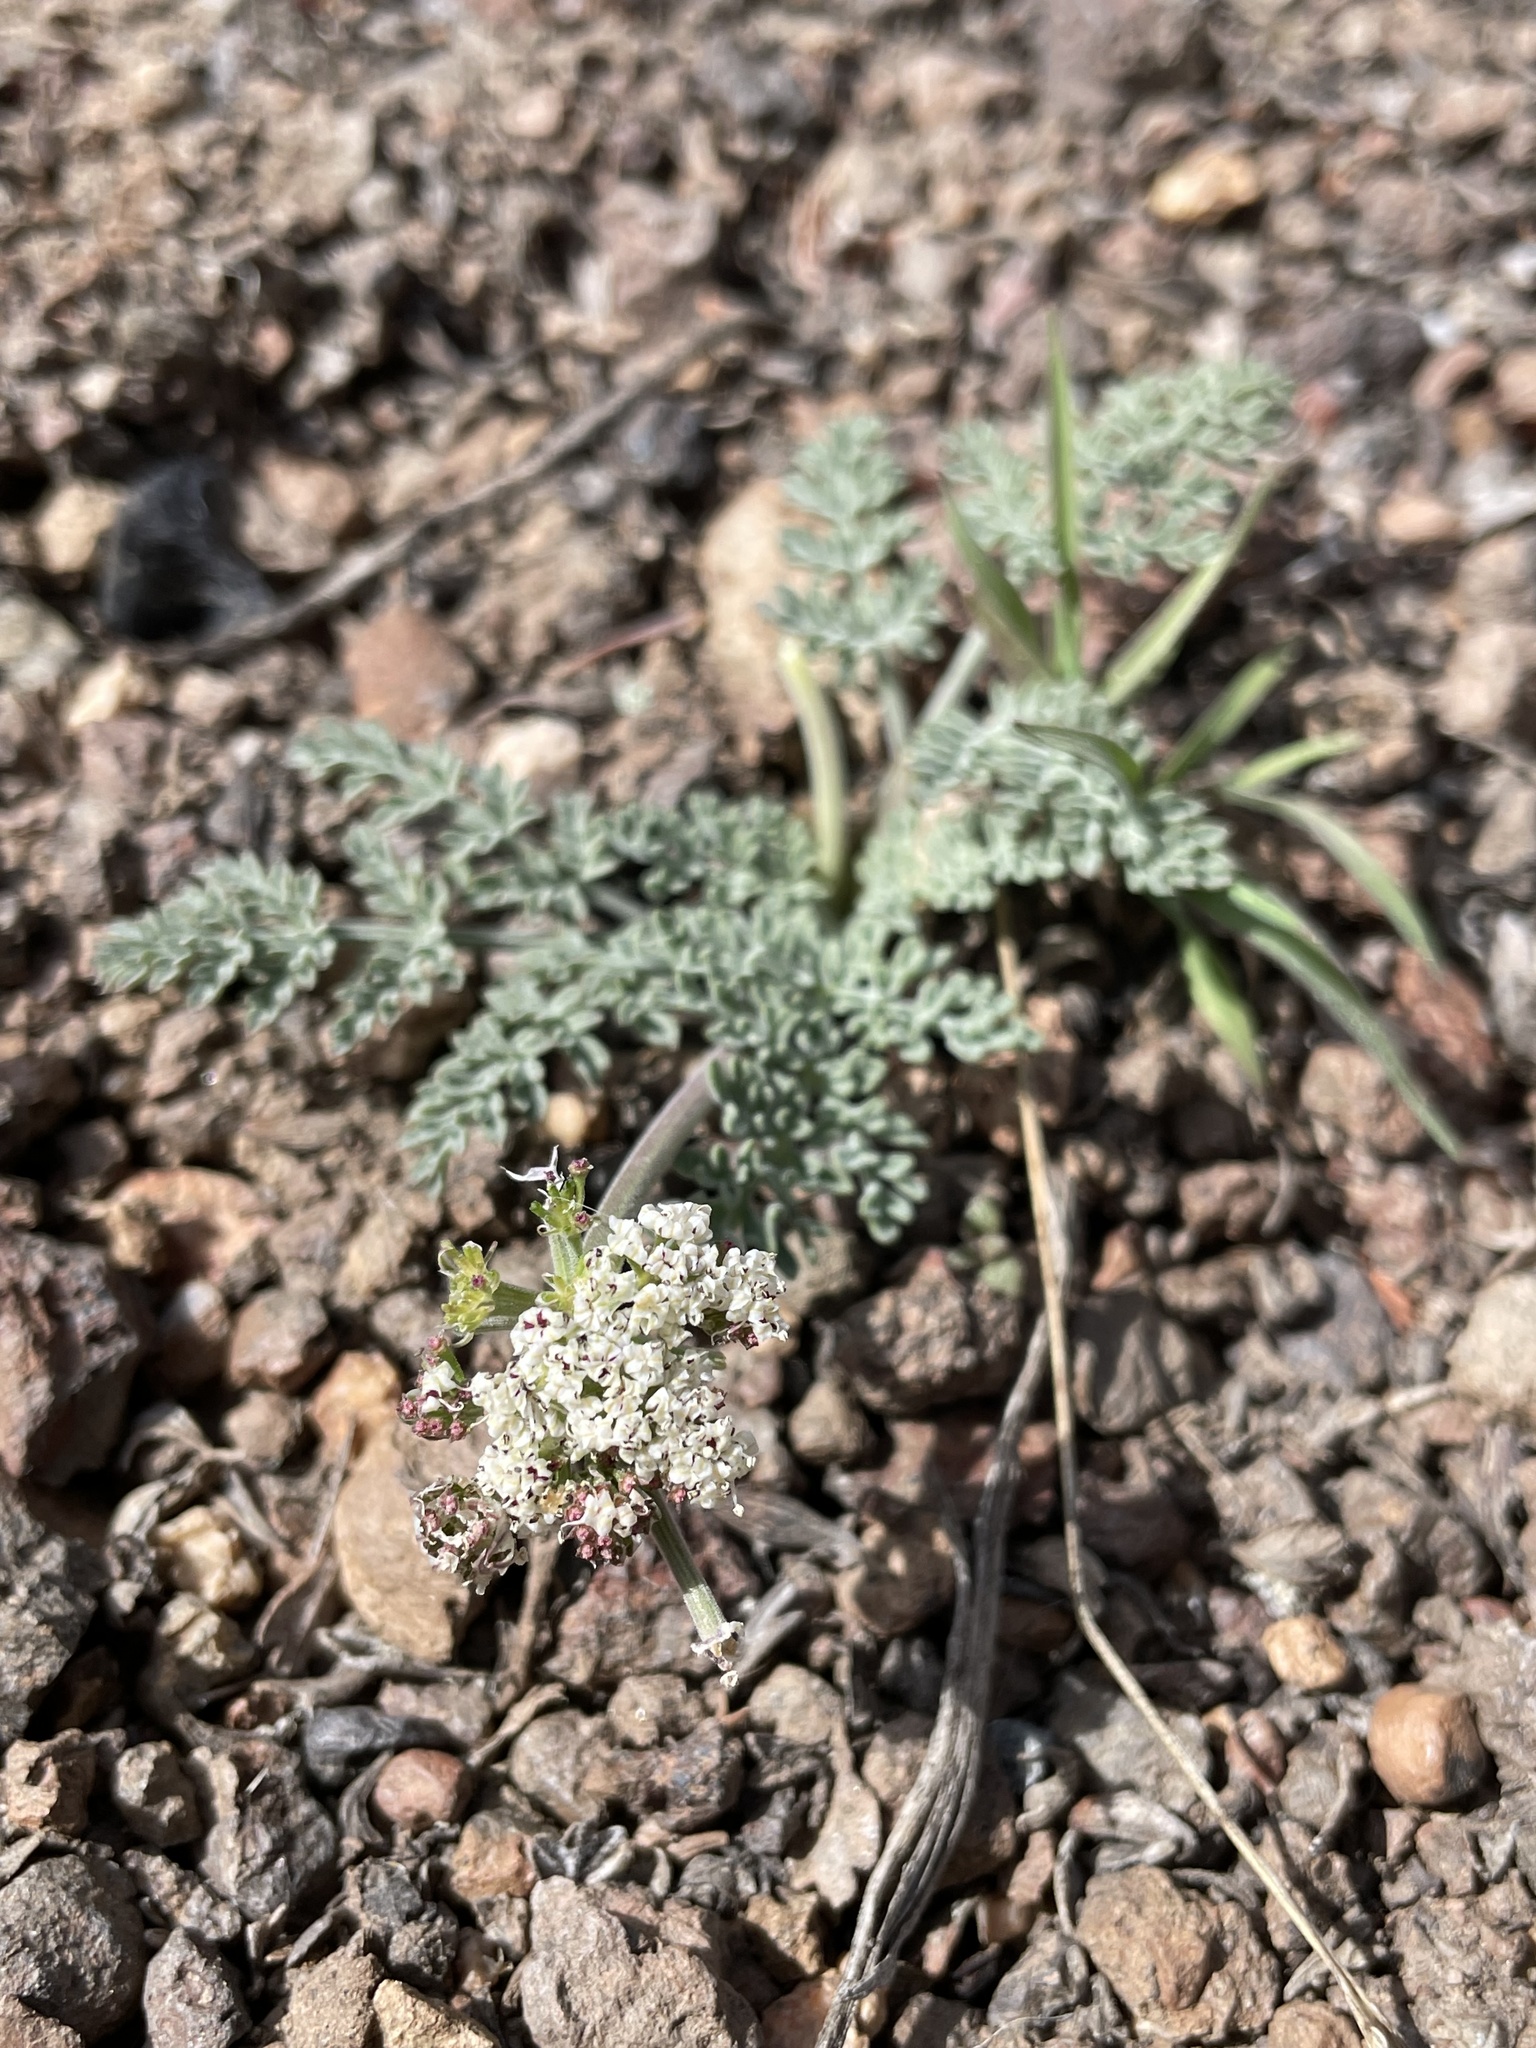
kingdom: Plantae
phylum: Tracheophyta
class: Magnoliopsida
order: Apiales
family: Apiaceae
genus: Lomatium
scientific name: Lomatium nevadense
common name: Nevada lomatium
